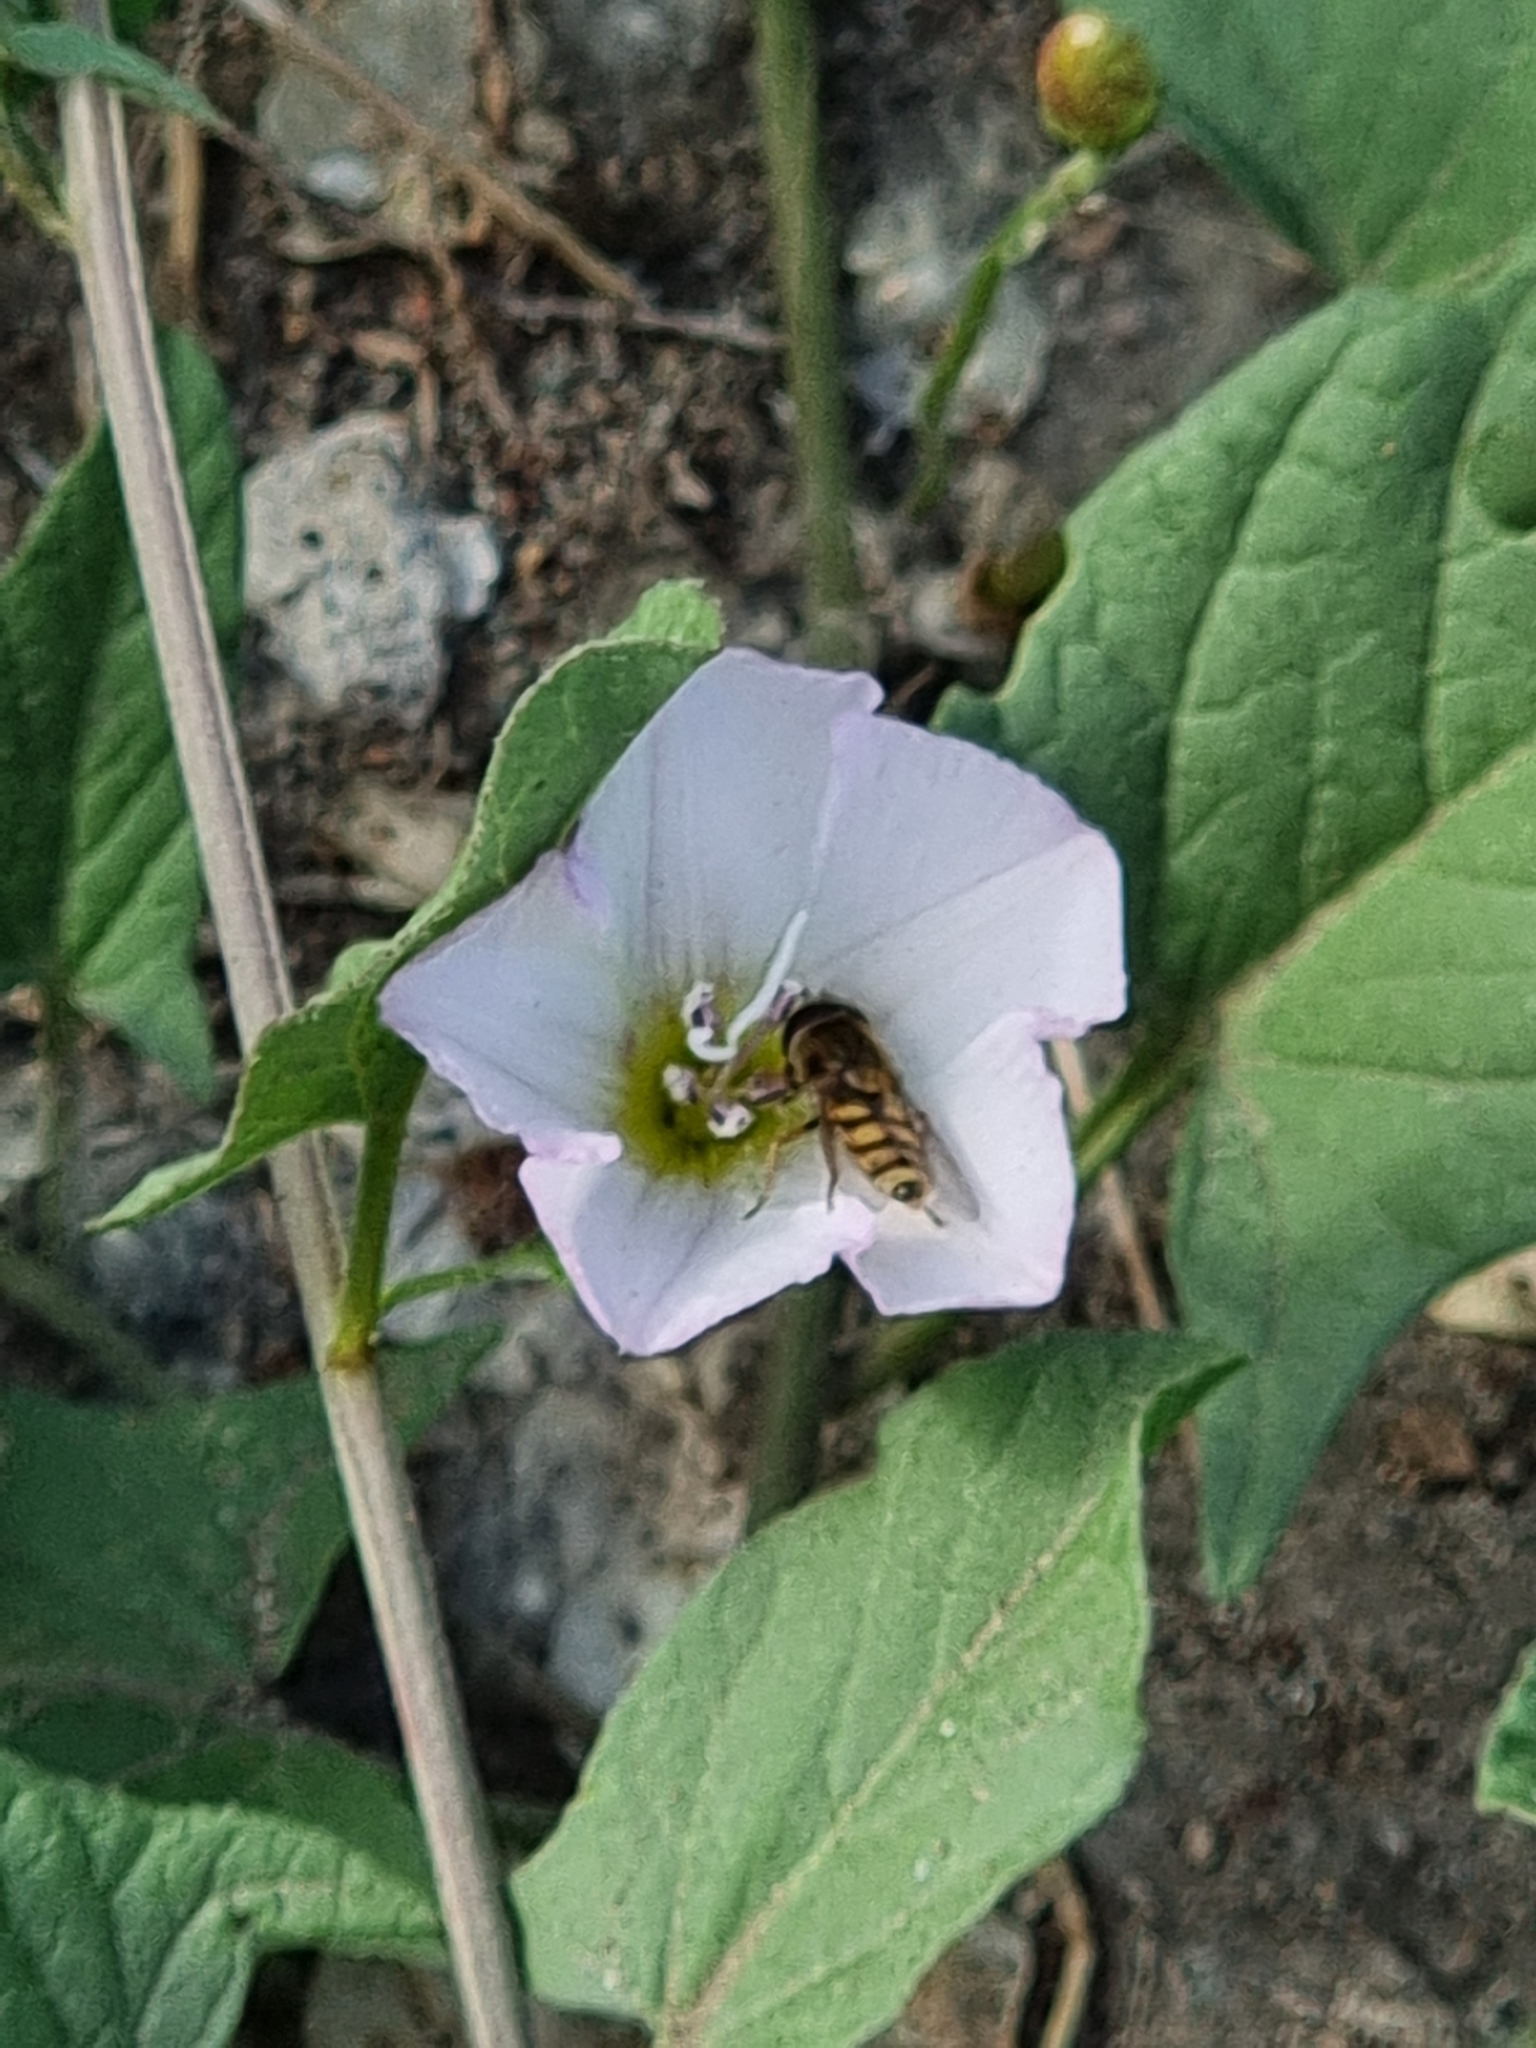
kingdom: Animalia
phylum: Arthropoda
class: Insecta
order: Diptera
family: Syrphidae
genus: Eupeodes
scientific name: Eupeodes corollae
